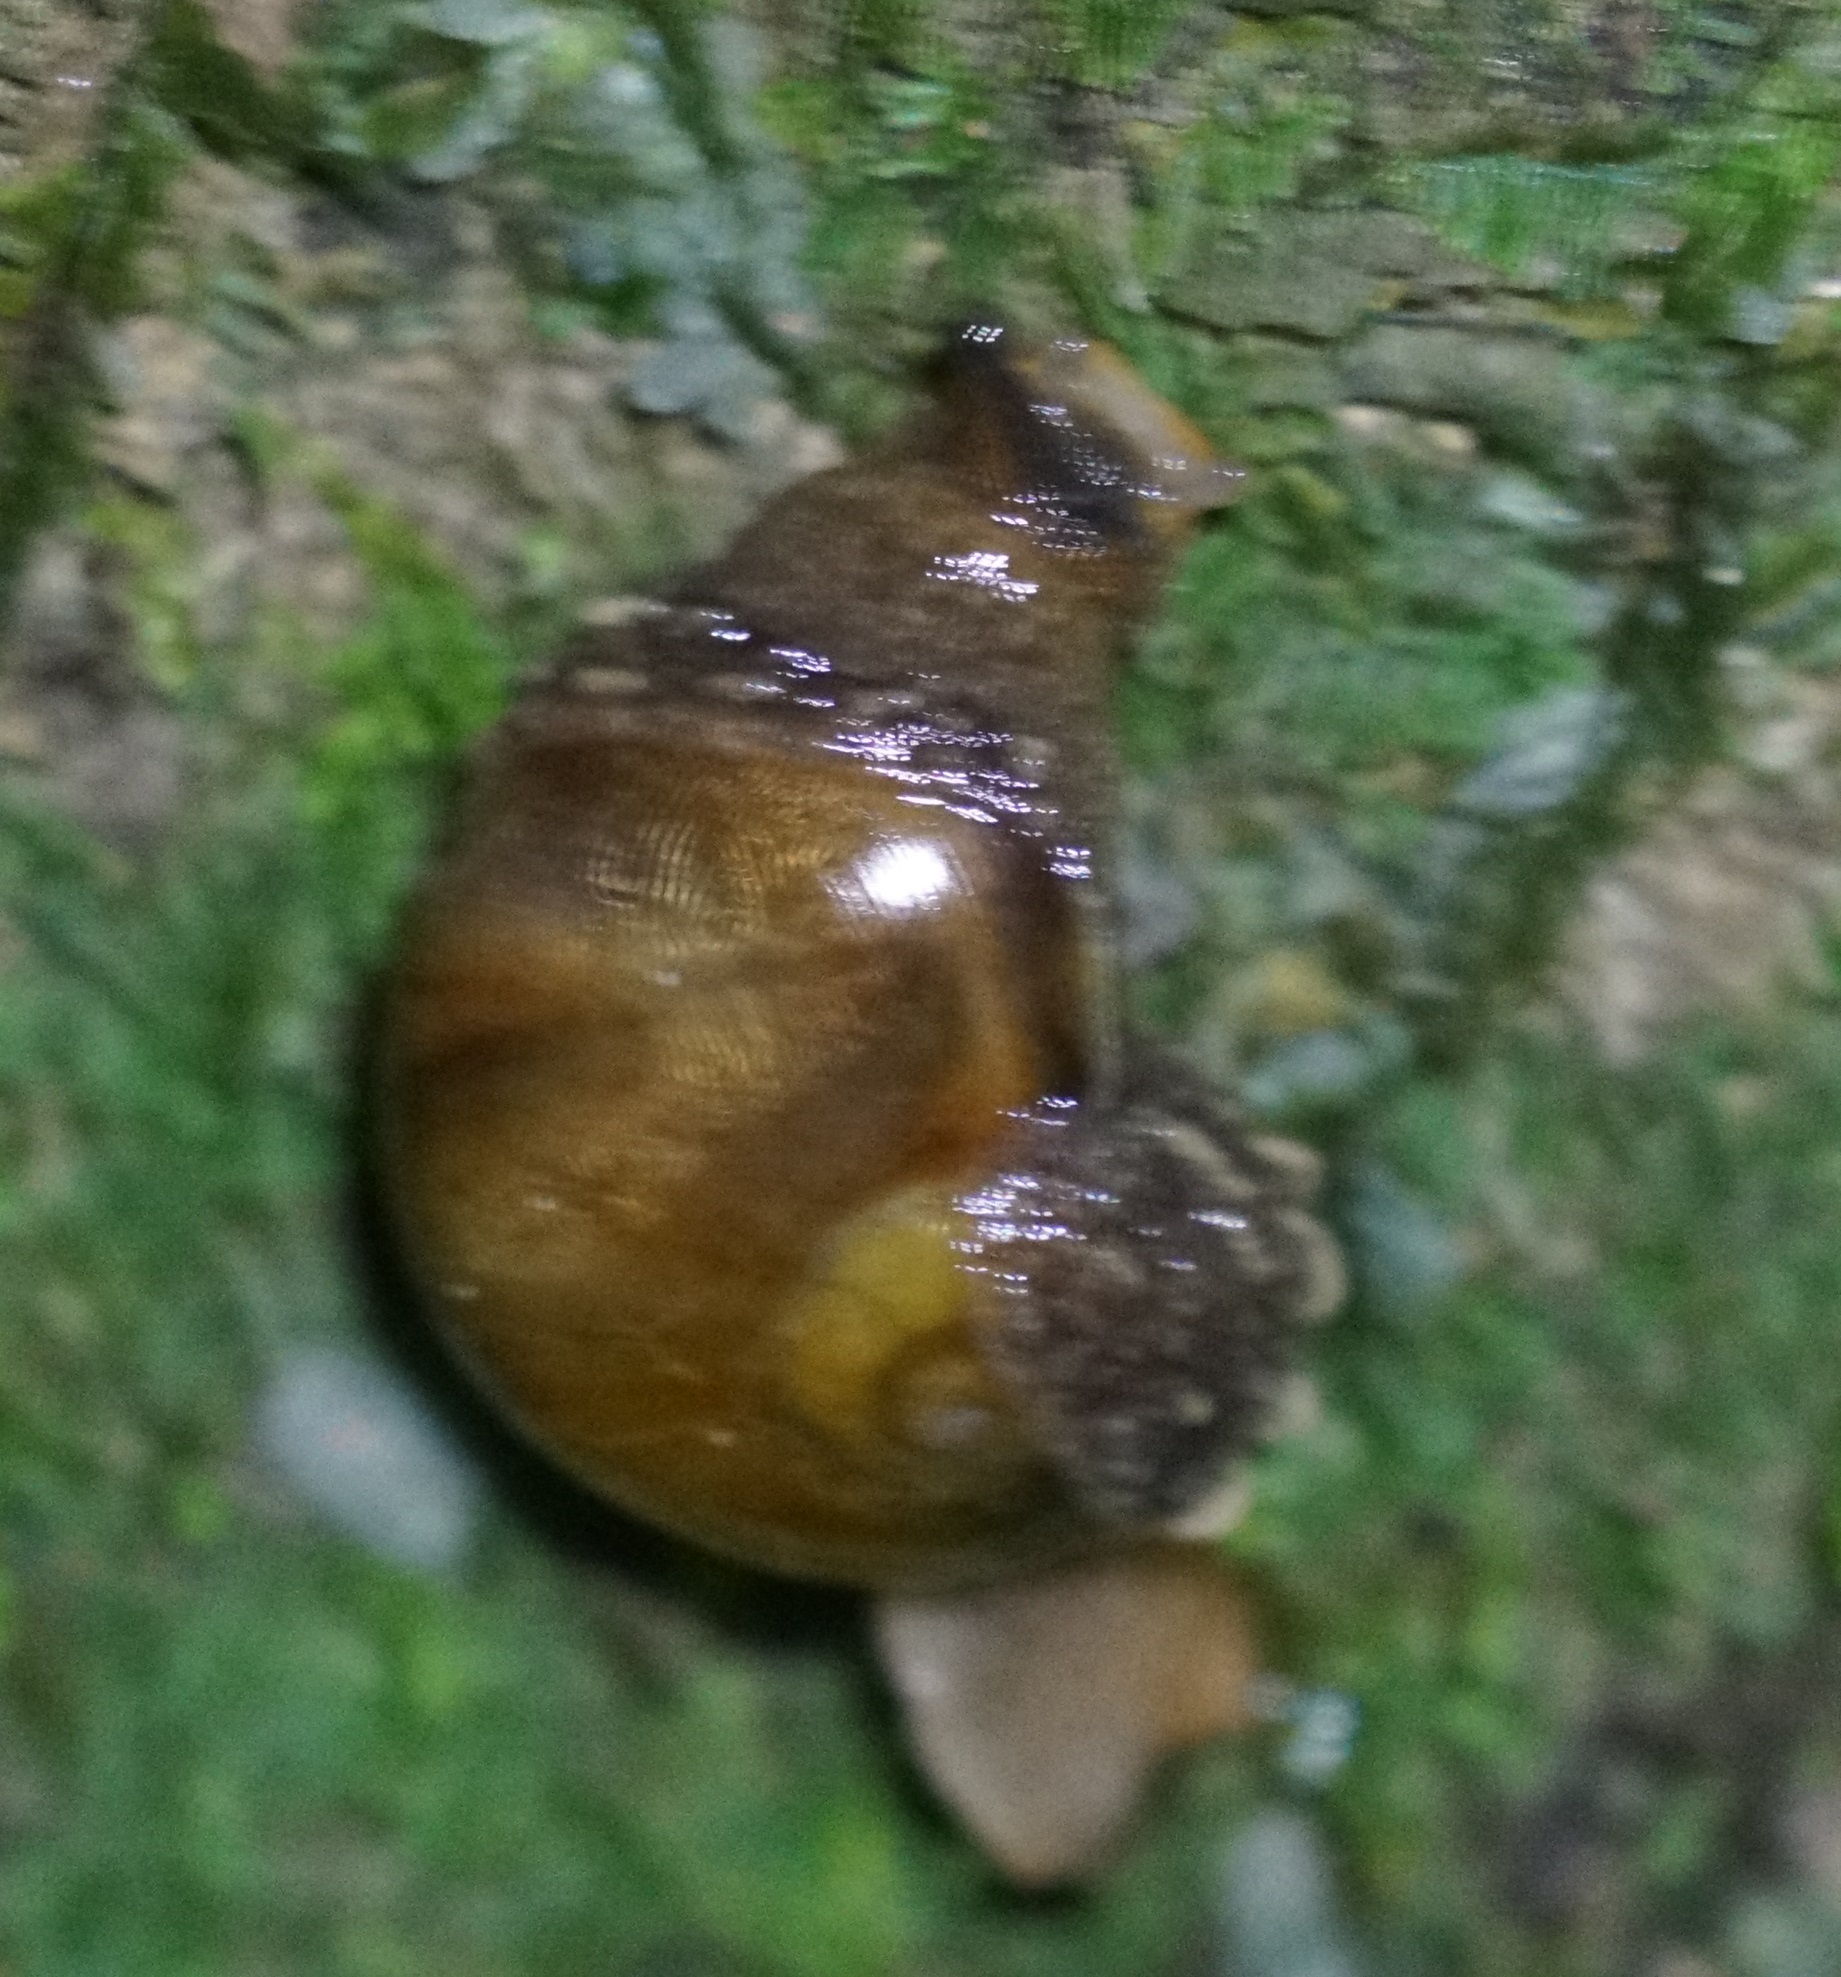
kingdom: Animalia
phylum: Mollusca
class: Gastropoda
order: Stylommatophora
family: Helicarionidae
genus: Fastosarion
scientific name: Fastosarion brazieri
